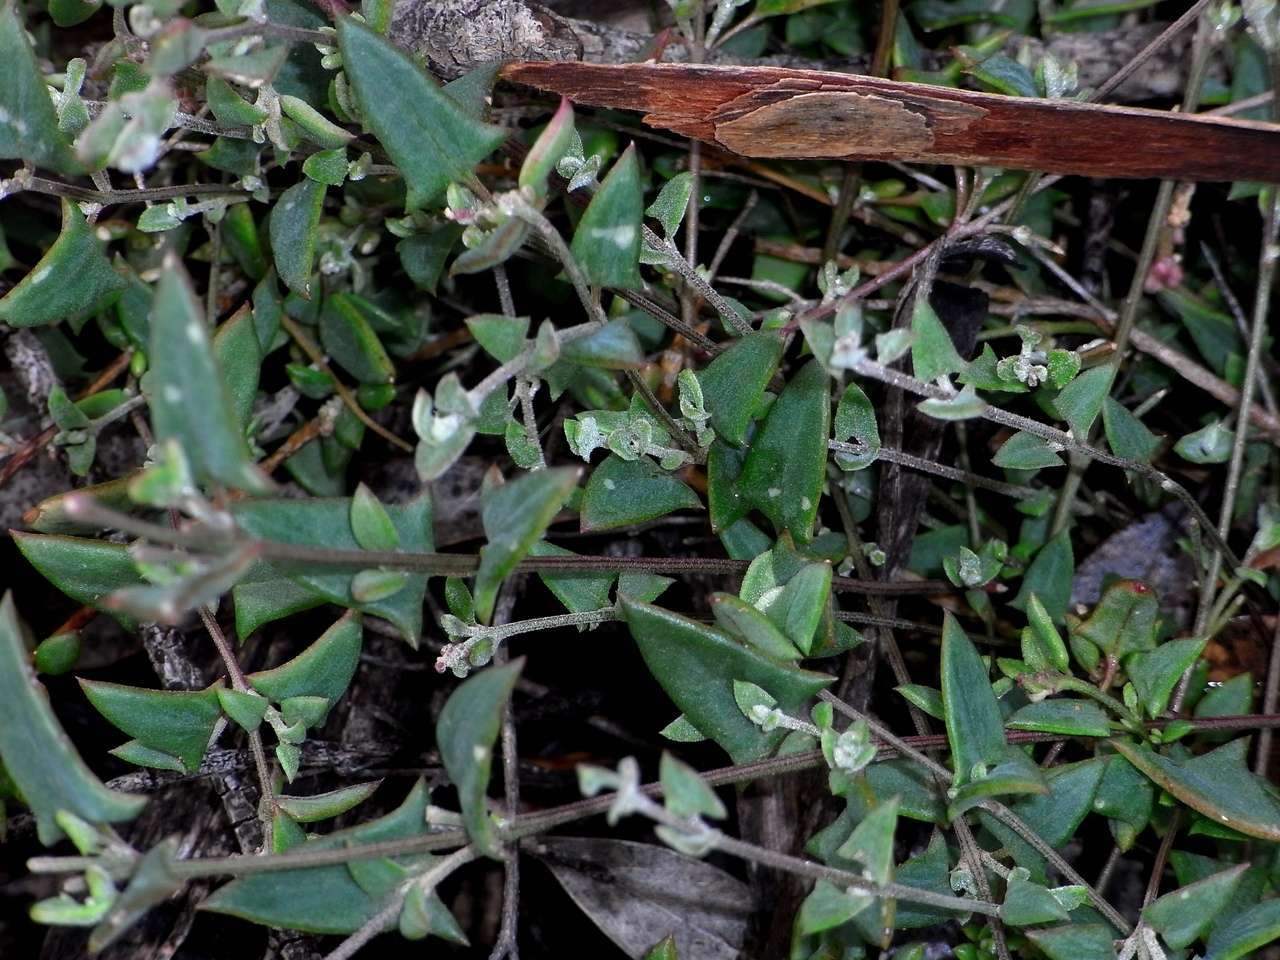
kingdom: Plantae
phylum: Tracheophyta
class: Magnoliopsida
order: Caryophyllales
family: Amaranthaceae
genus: Chenopodium
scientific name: Chenopodium nutans
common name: Climbing-saltbush
